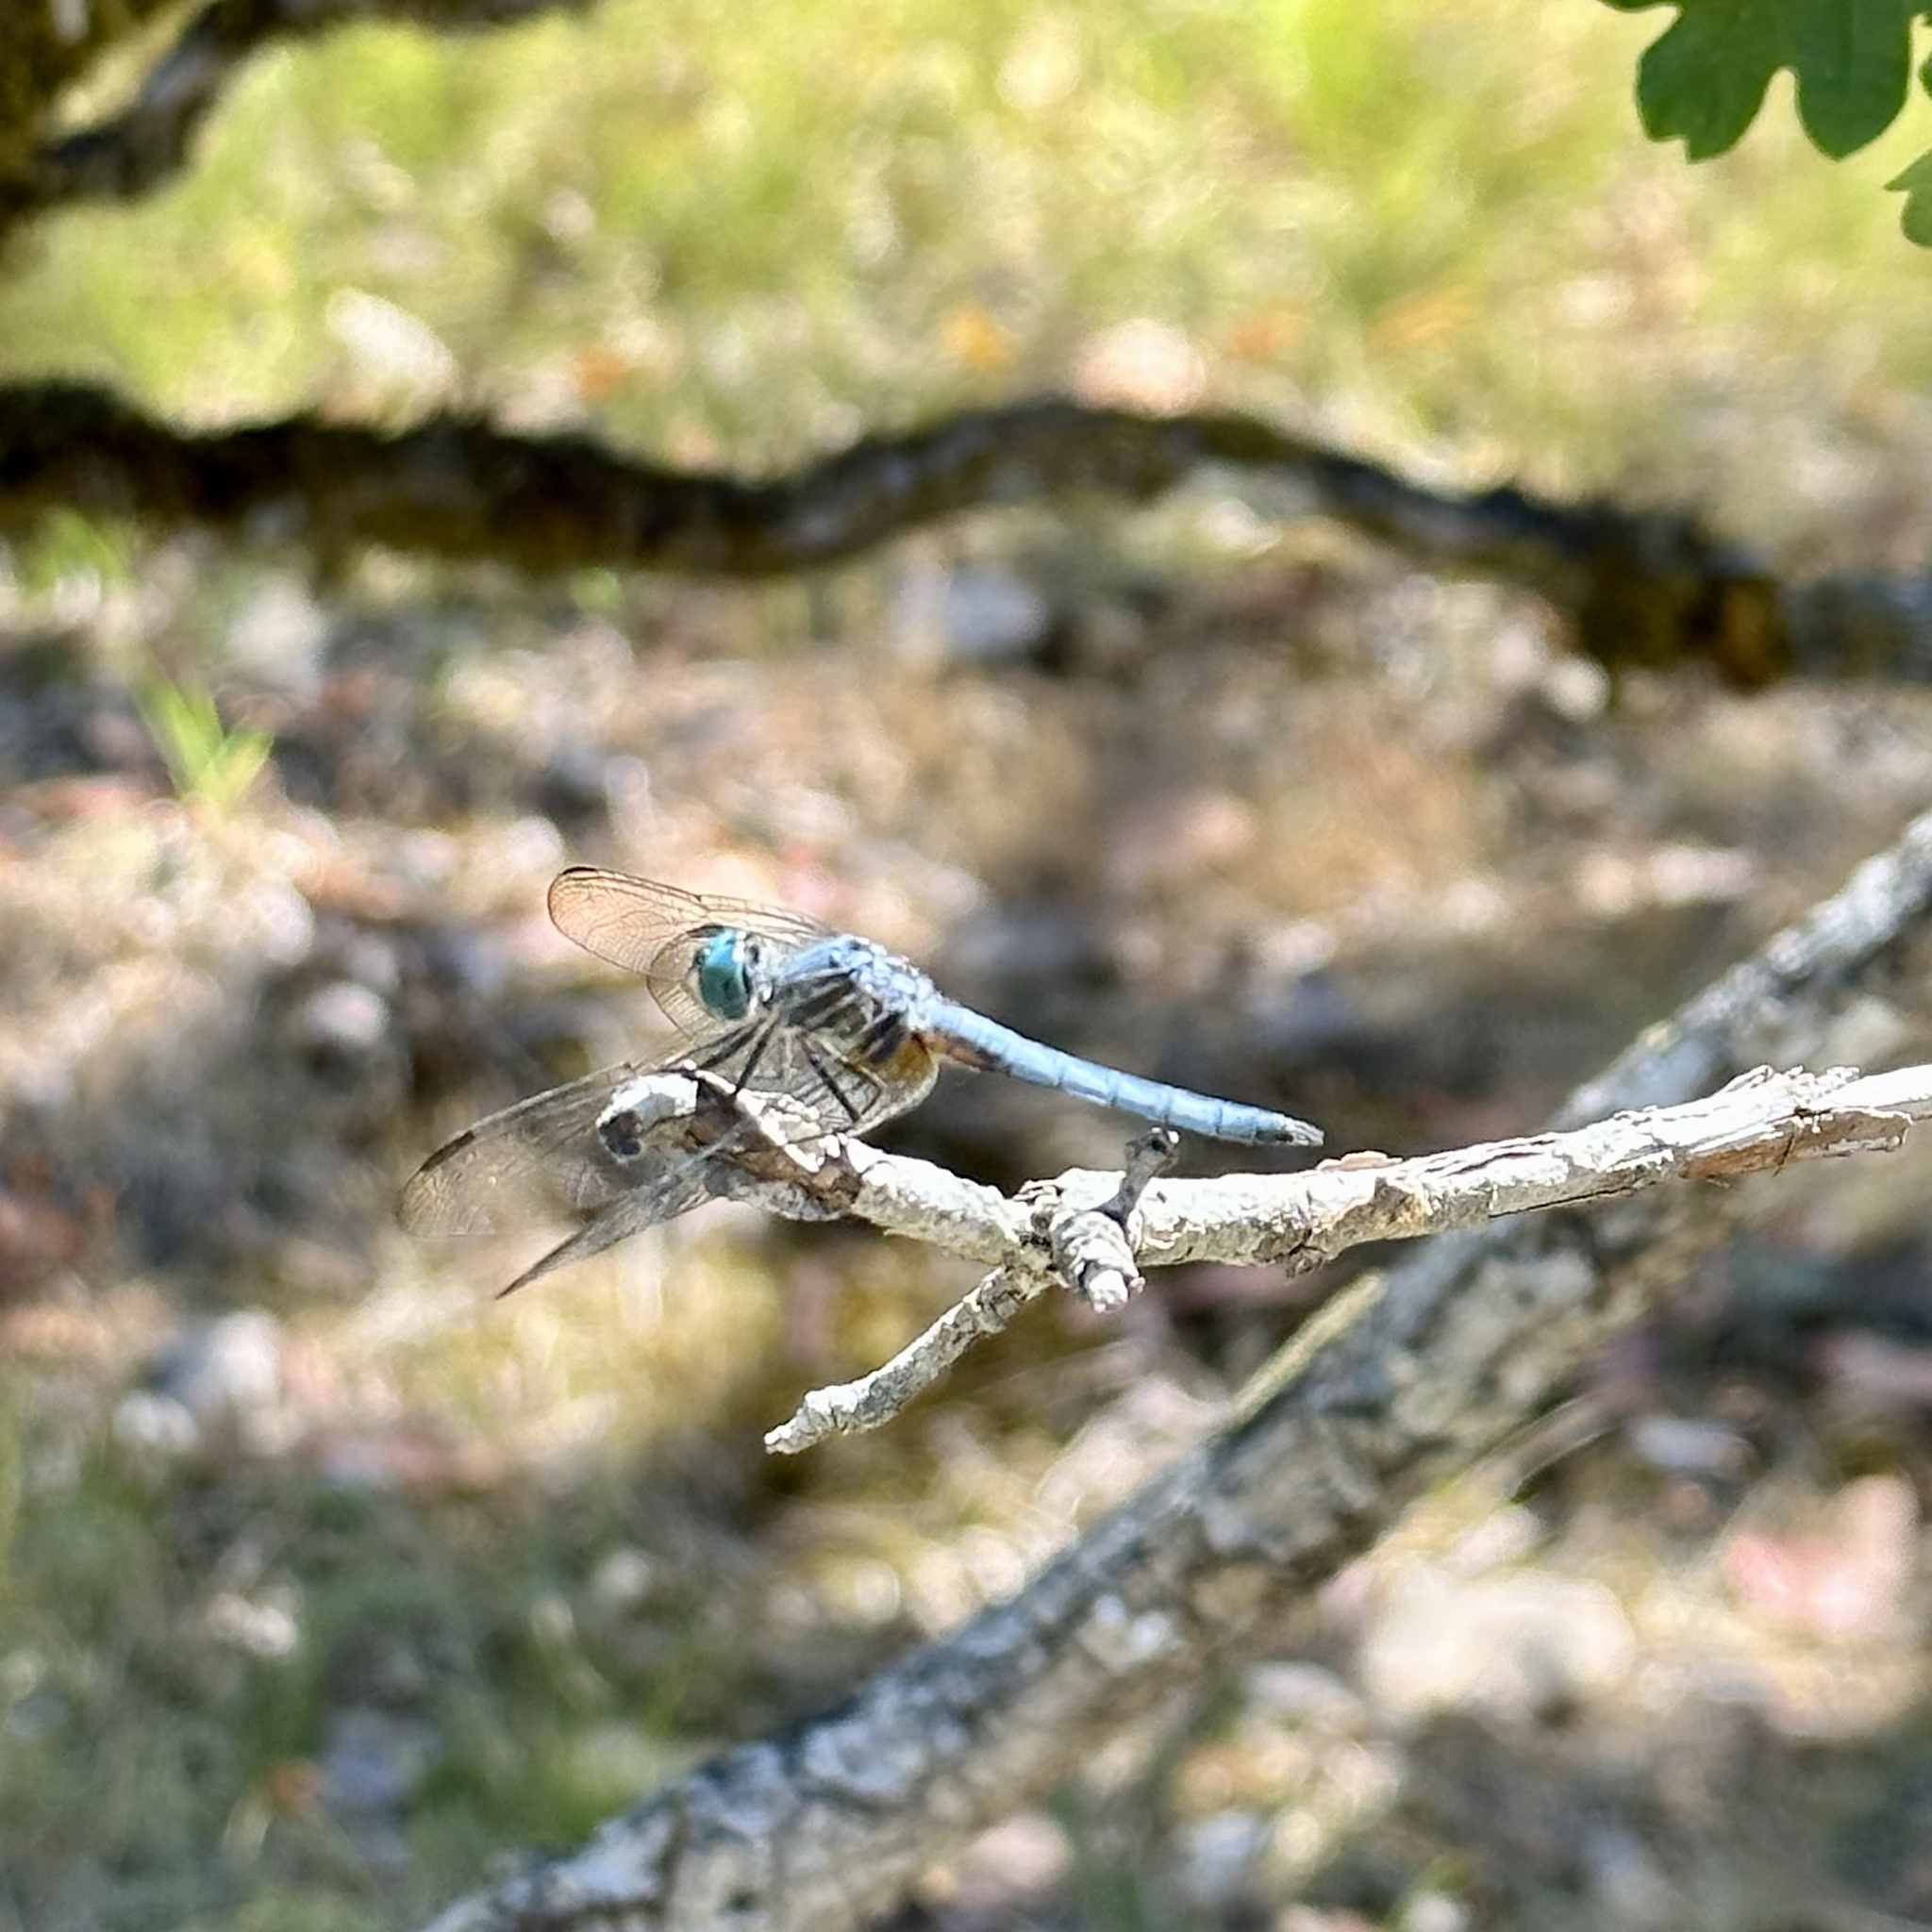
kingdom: Animalia
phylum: Arthropoda
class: Insecta
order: Odonata
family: Libellulidae
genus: Pachydiplax
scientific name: Pachydiplax longipennis
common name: Blue dasher
